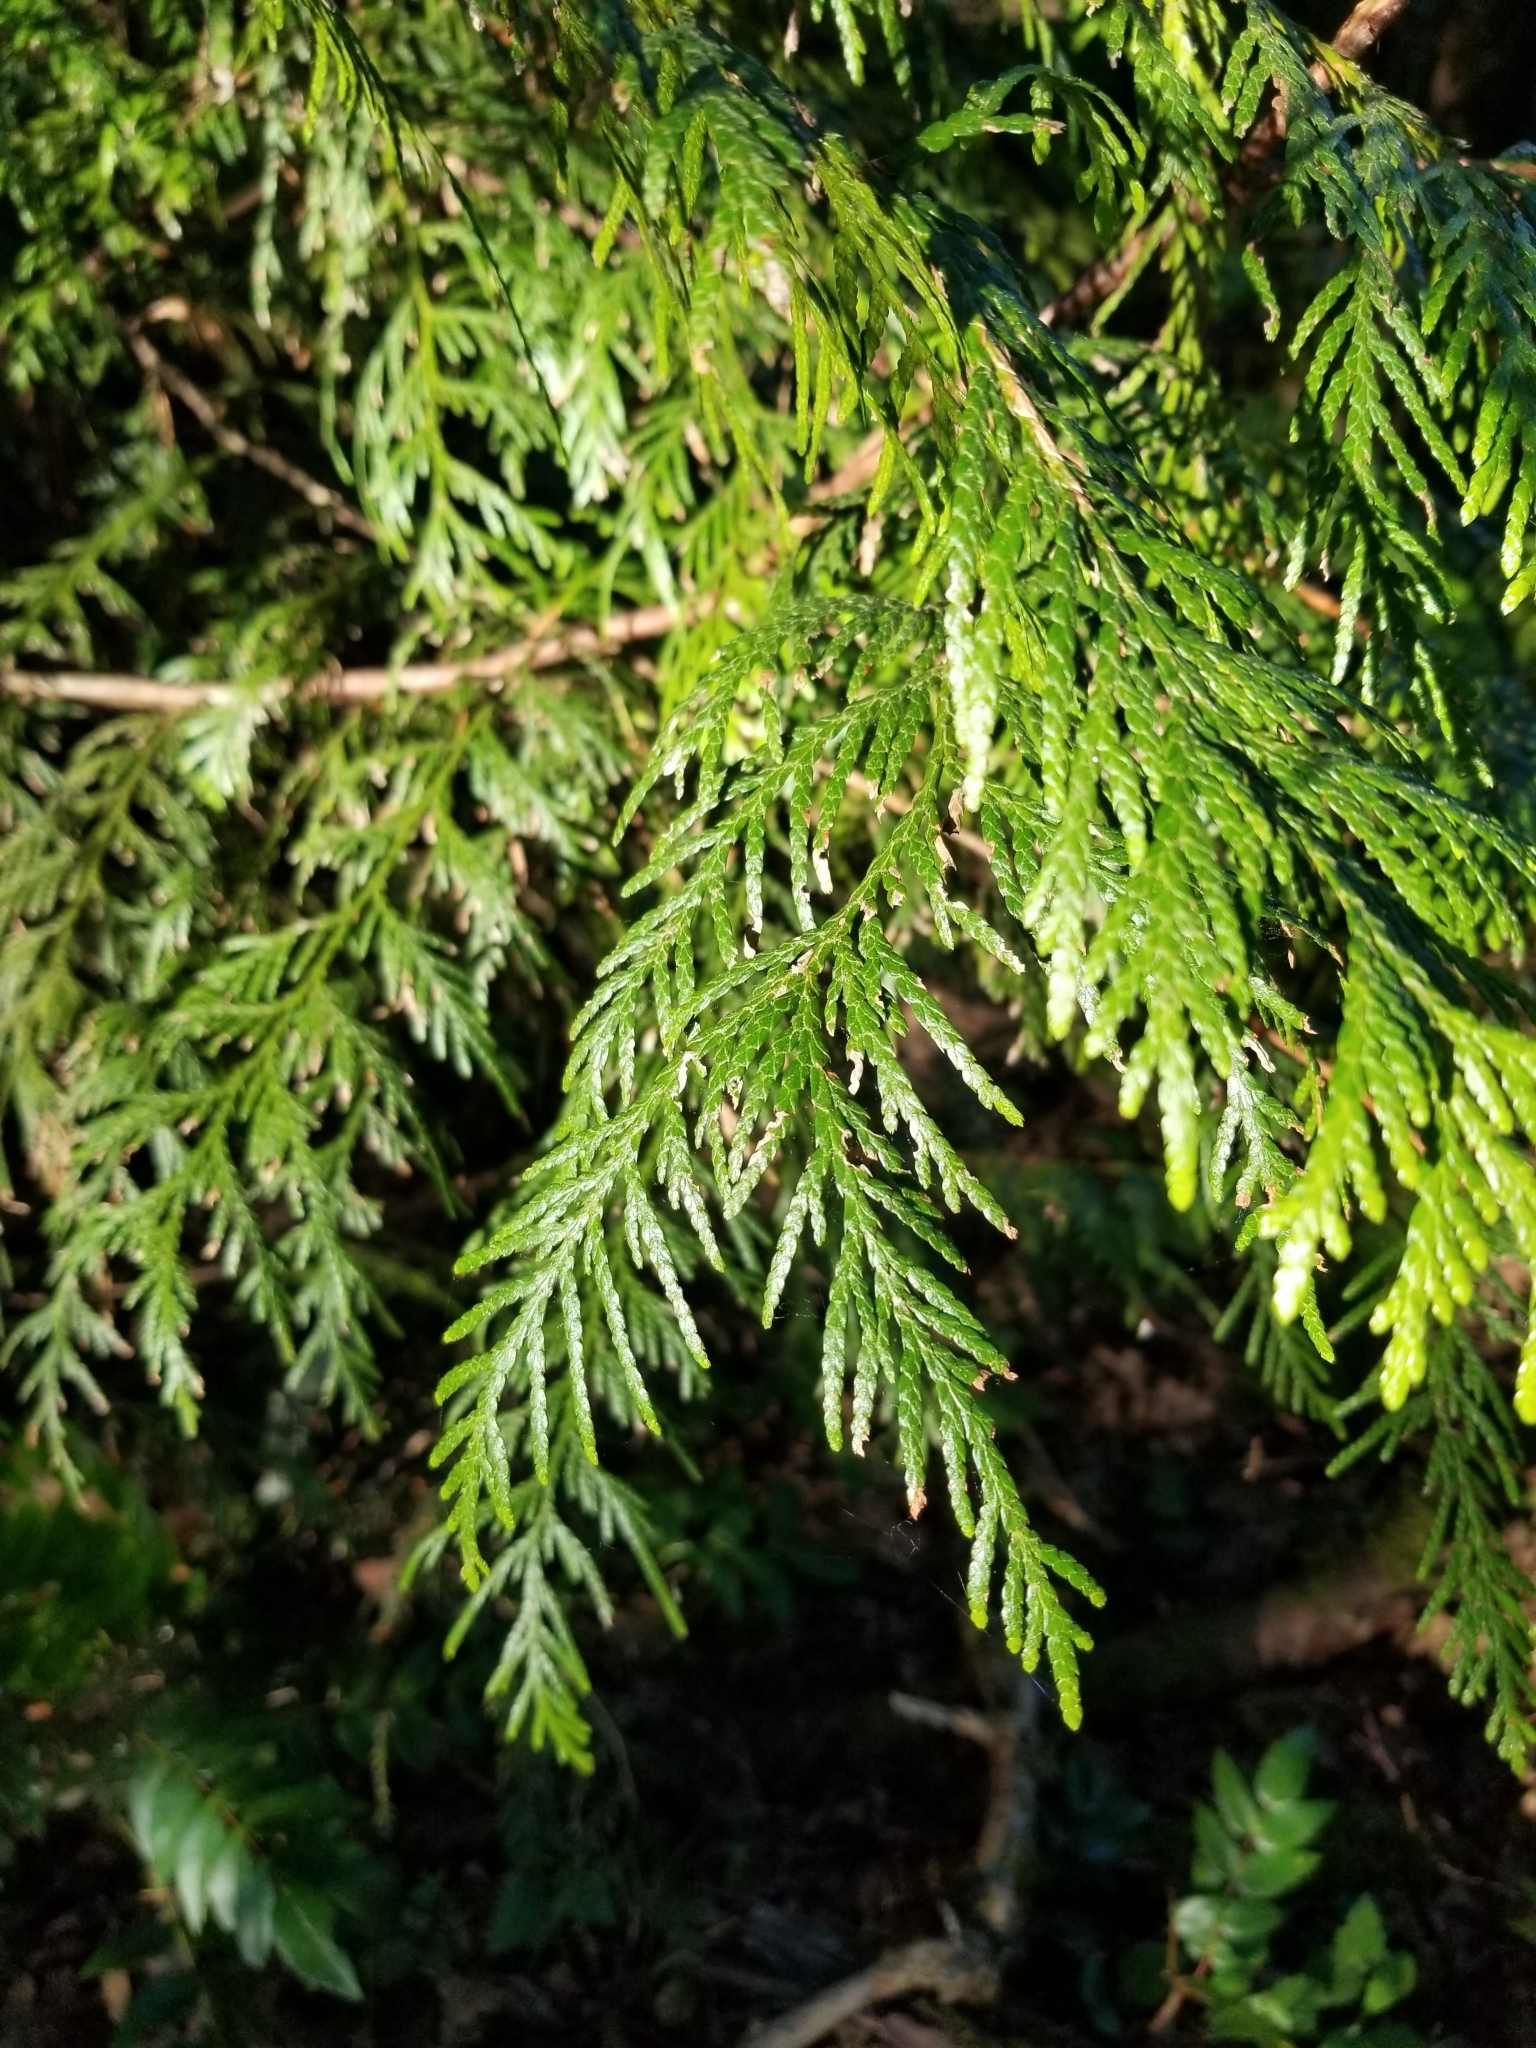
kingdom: Plantae
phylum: Tracheophyta
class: Pinopsida
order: Pinales
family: Cupressaceae
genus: Thuja
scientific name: Thuja plicata
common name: Western red-cedar
